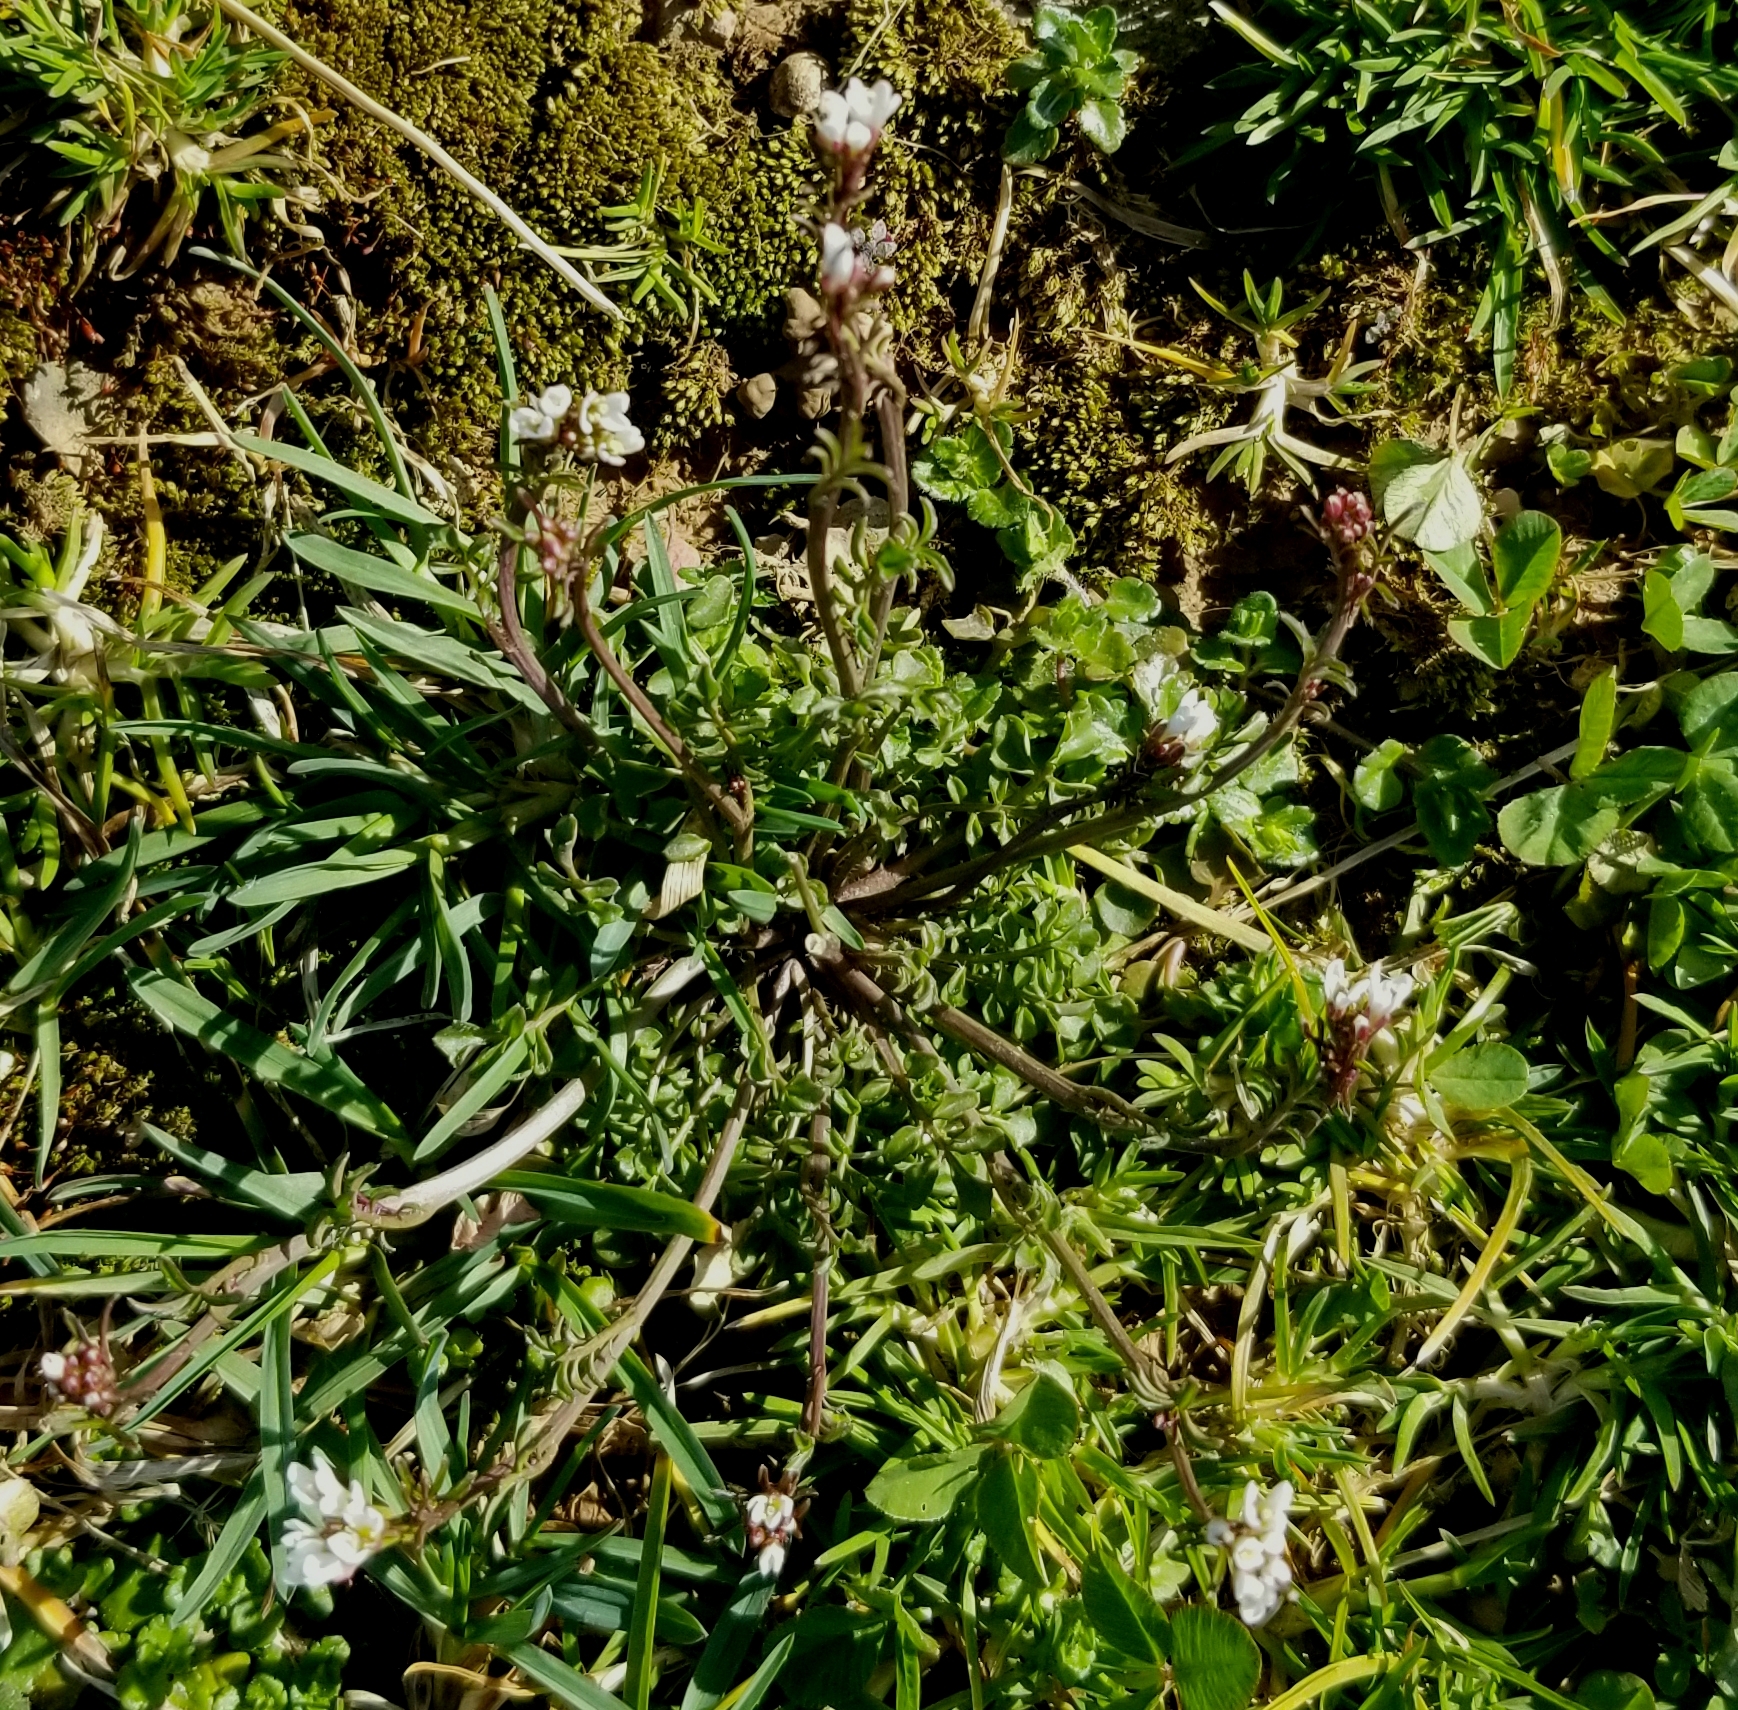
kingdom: Plantae
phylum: Tracheophyta
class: Magnoliopsida
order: Brassicales
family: Brassicaceae
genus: Cardamine
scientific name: Cardamine hirsuta
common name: Hairy bittercress
